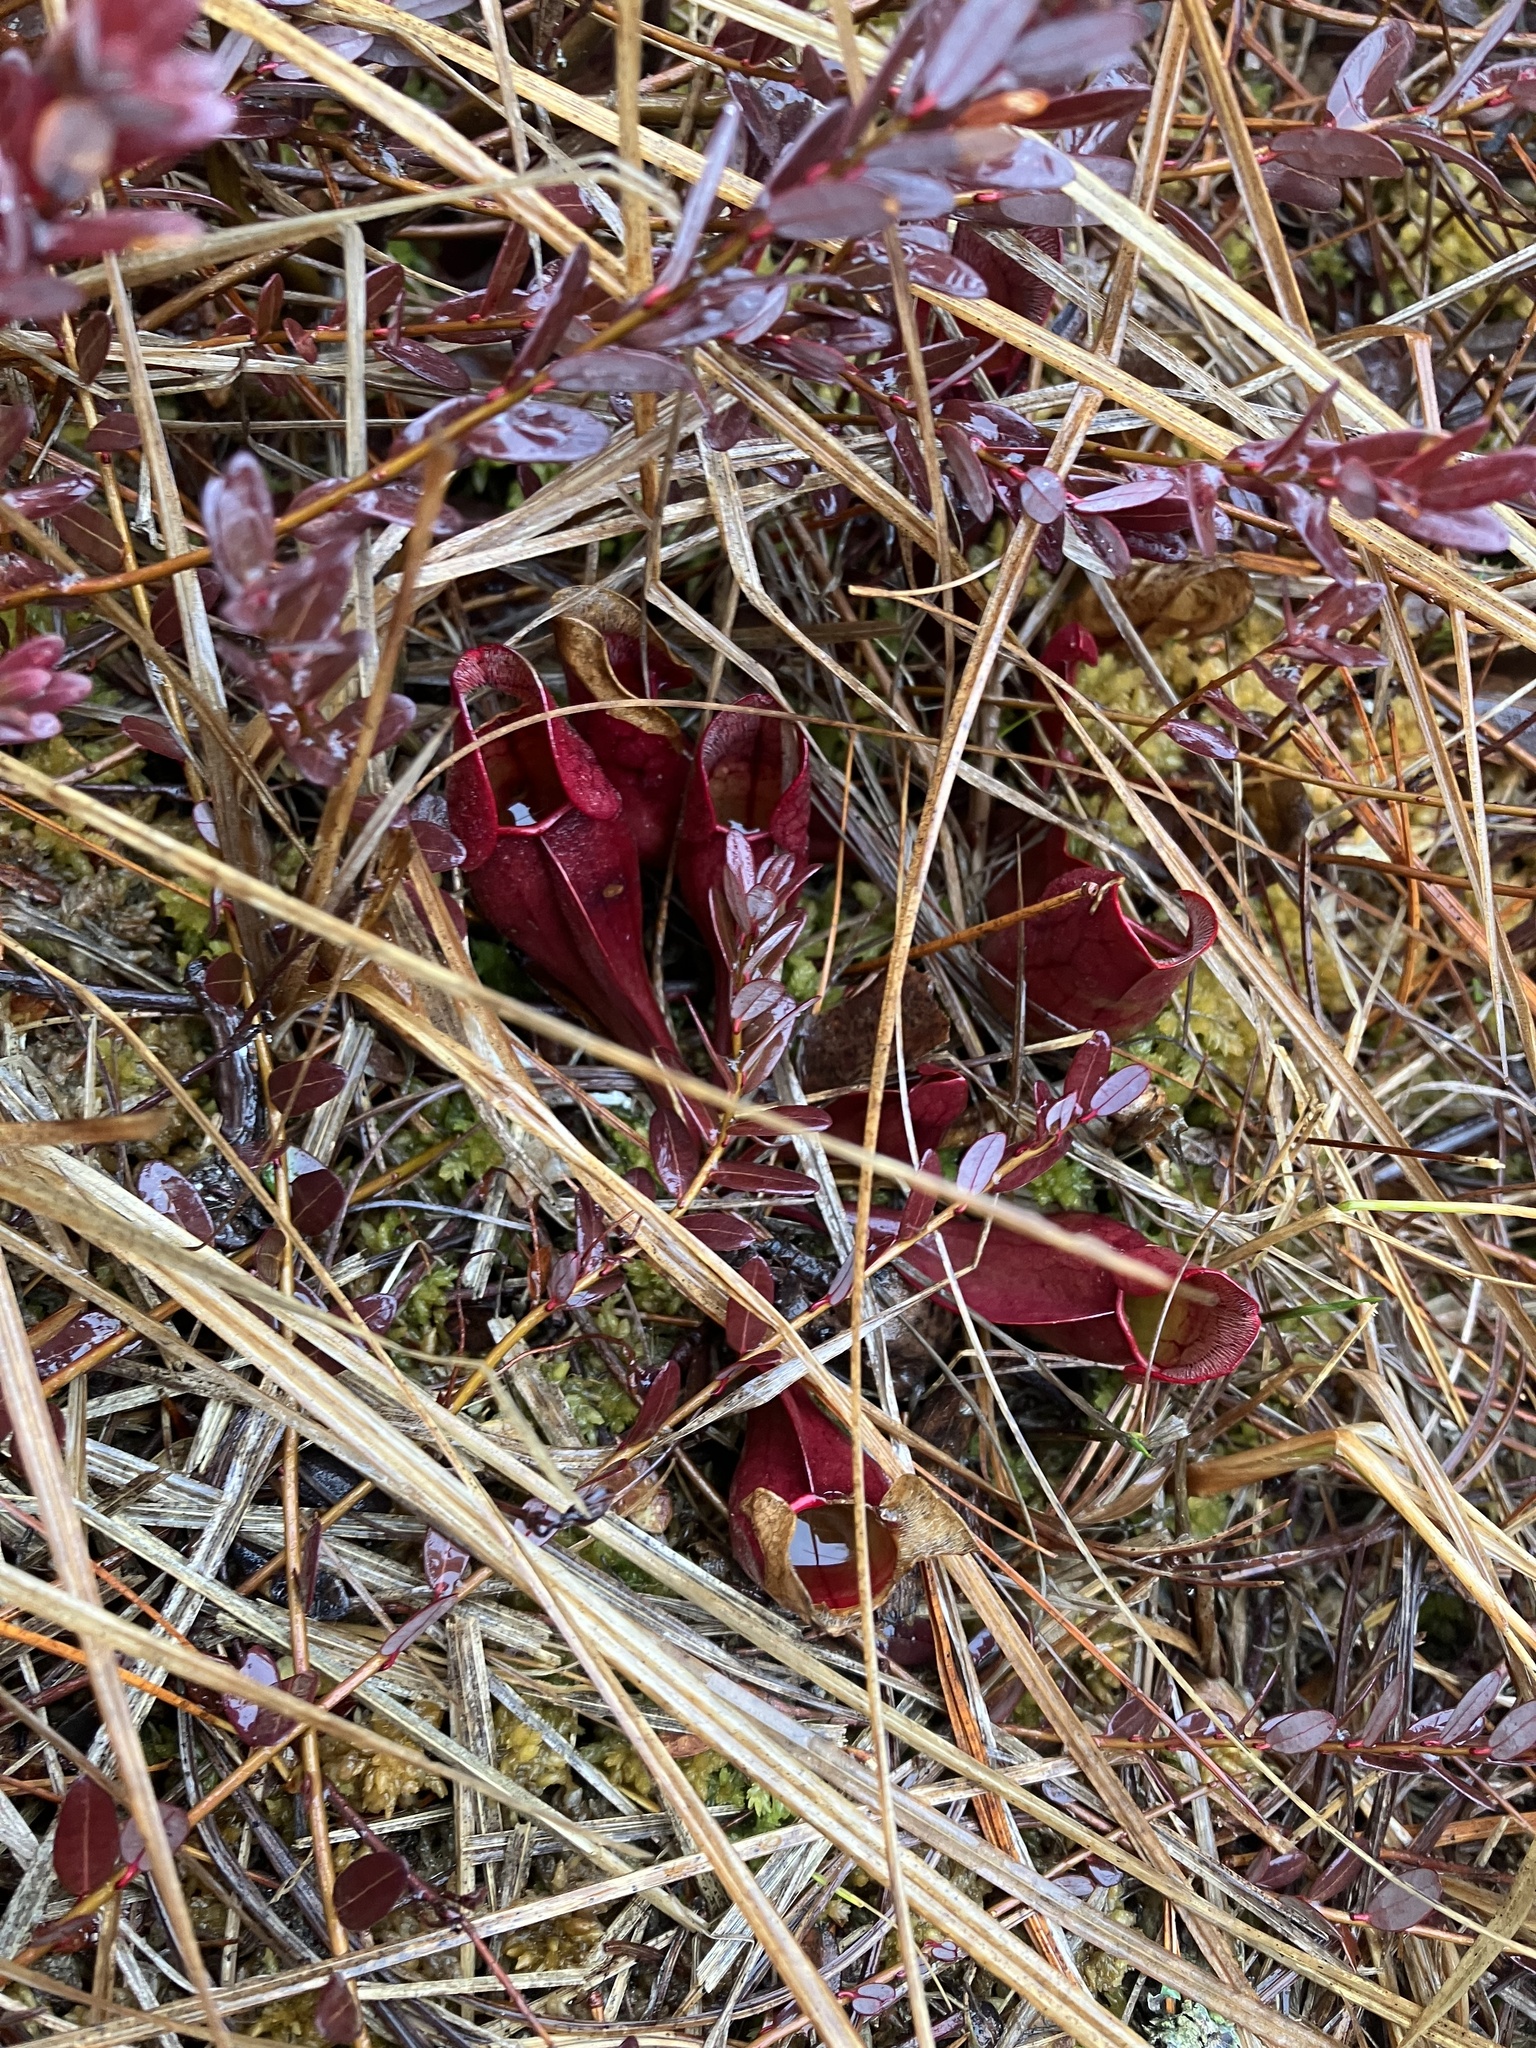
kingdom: Plantae
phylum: Tracheophyta
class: Magnoliopsida
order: Ericales
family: Sarraceniaceae
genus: Sarracenia
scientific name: Sarracenia purpurea
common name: Pitcherplant
